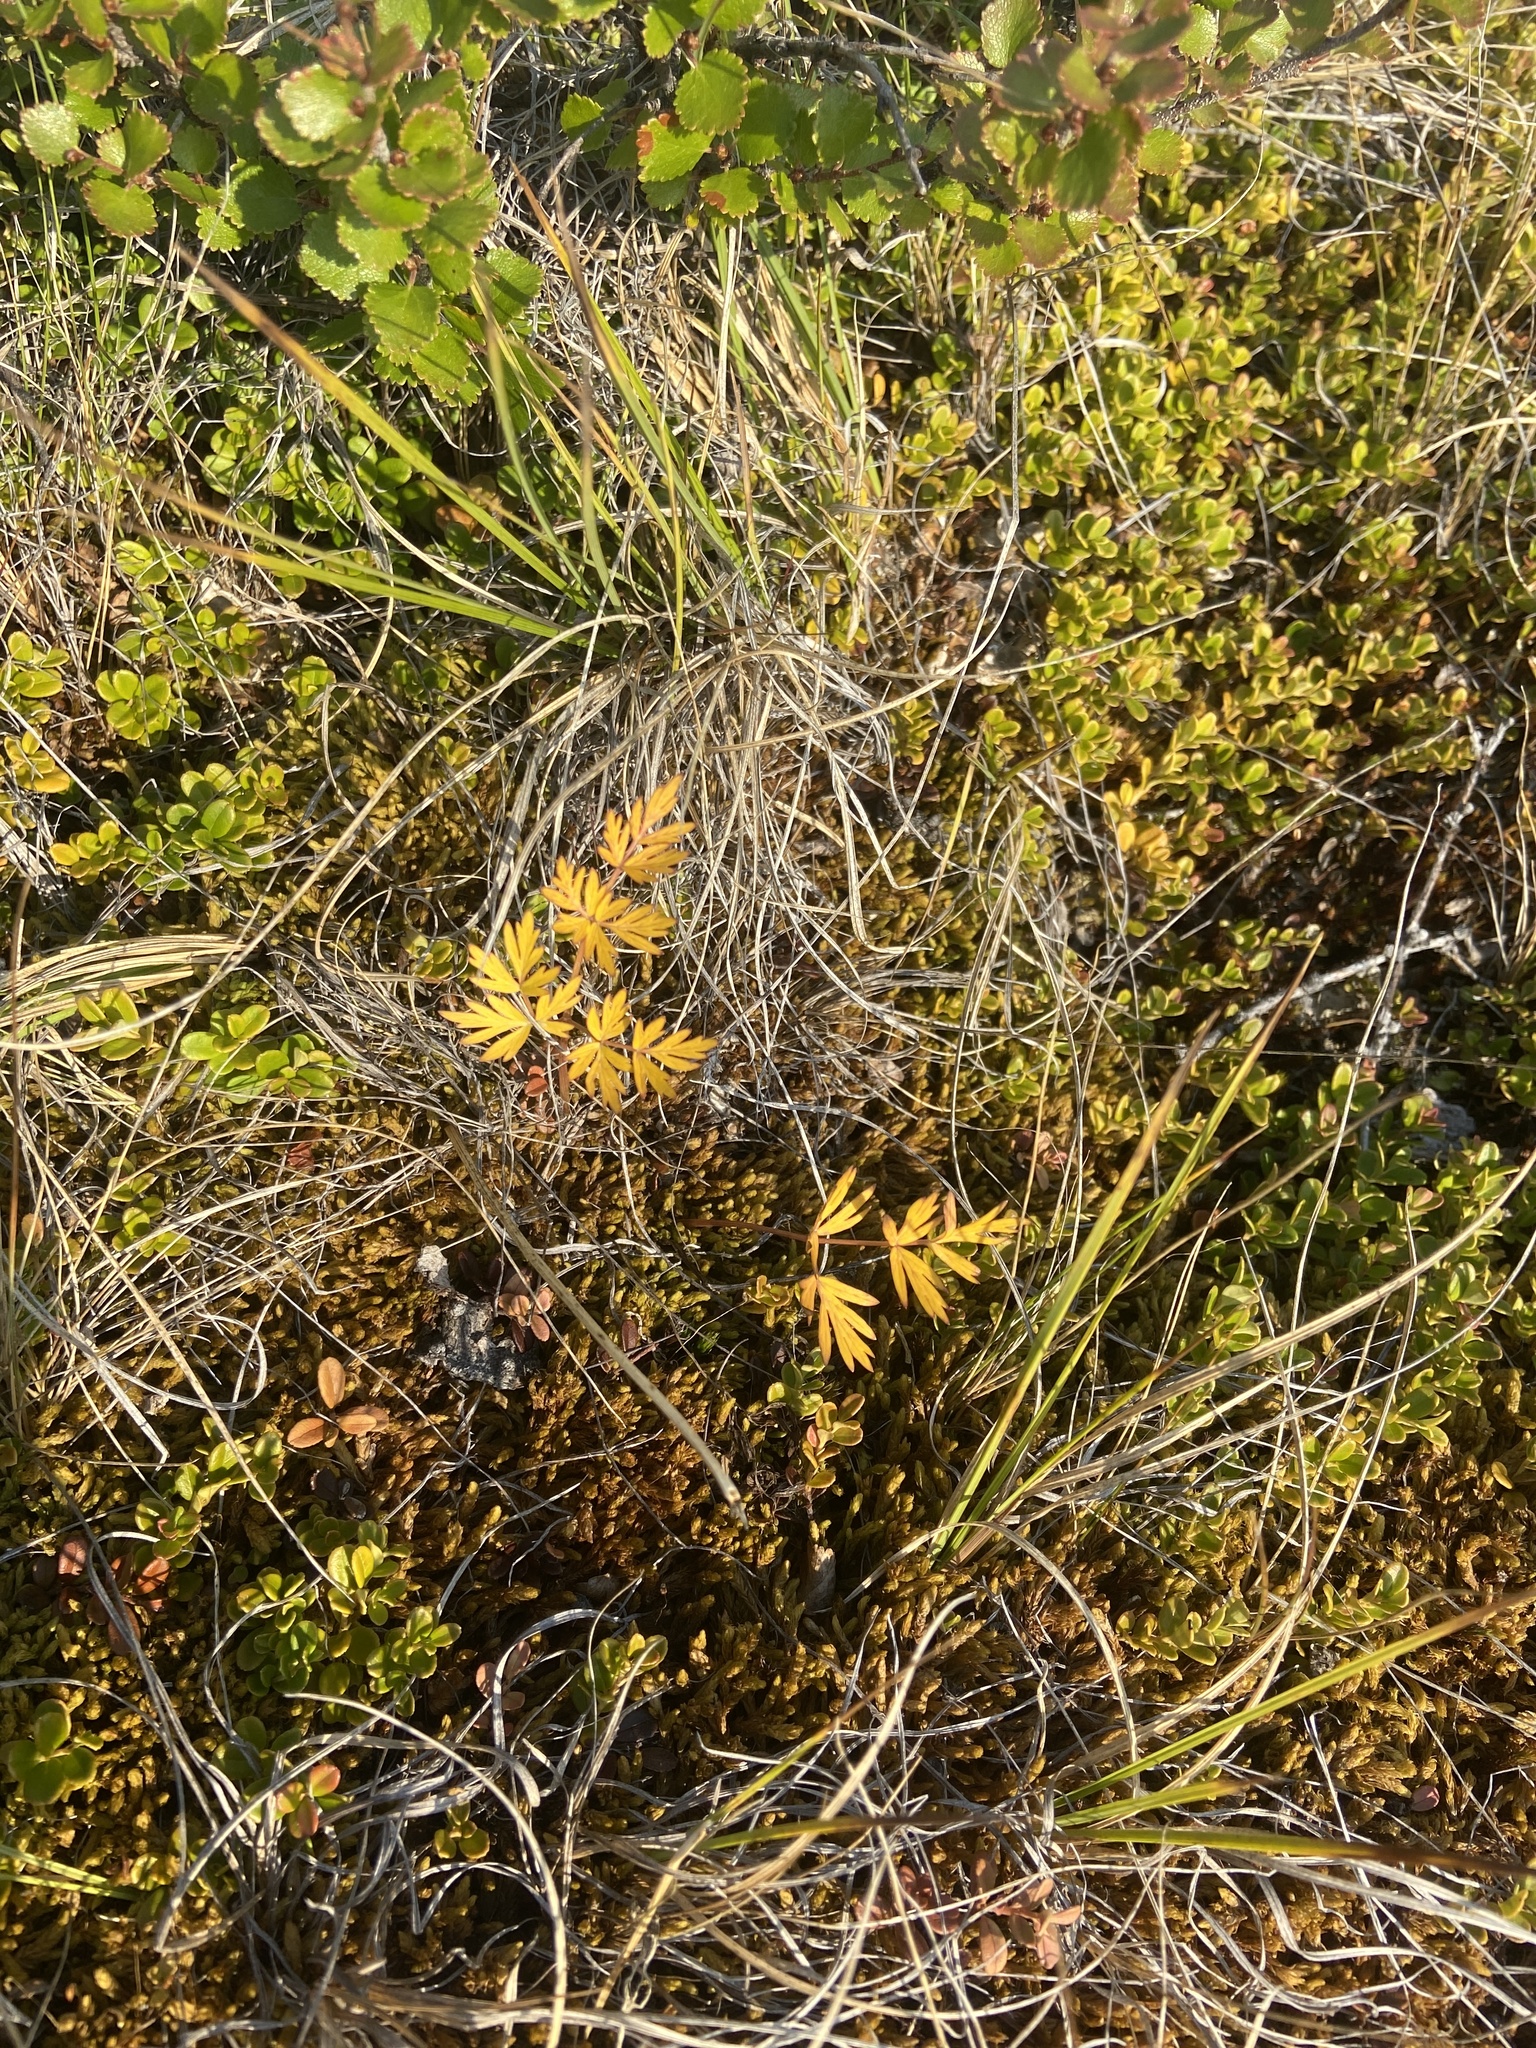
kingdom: Plantae
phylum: Tracheophyta
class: Magnoliopsida
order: Apiales
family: Apiaceae
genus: Tilingia
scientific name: Tilingia ajanensis
